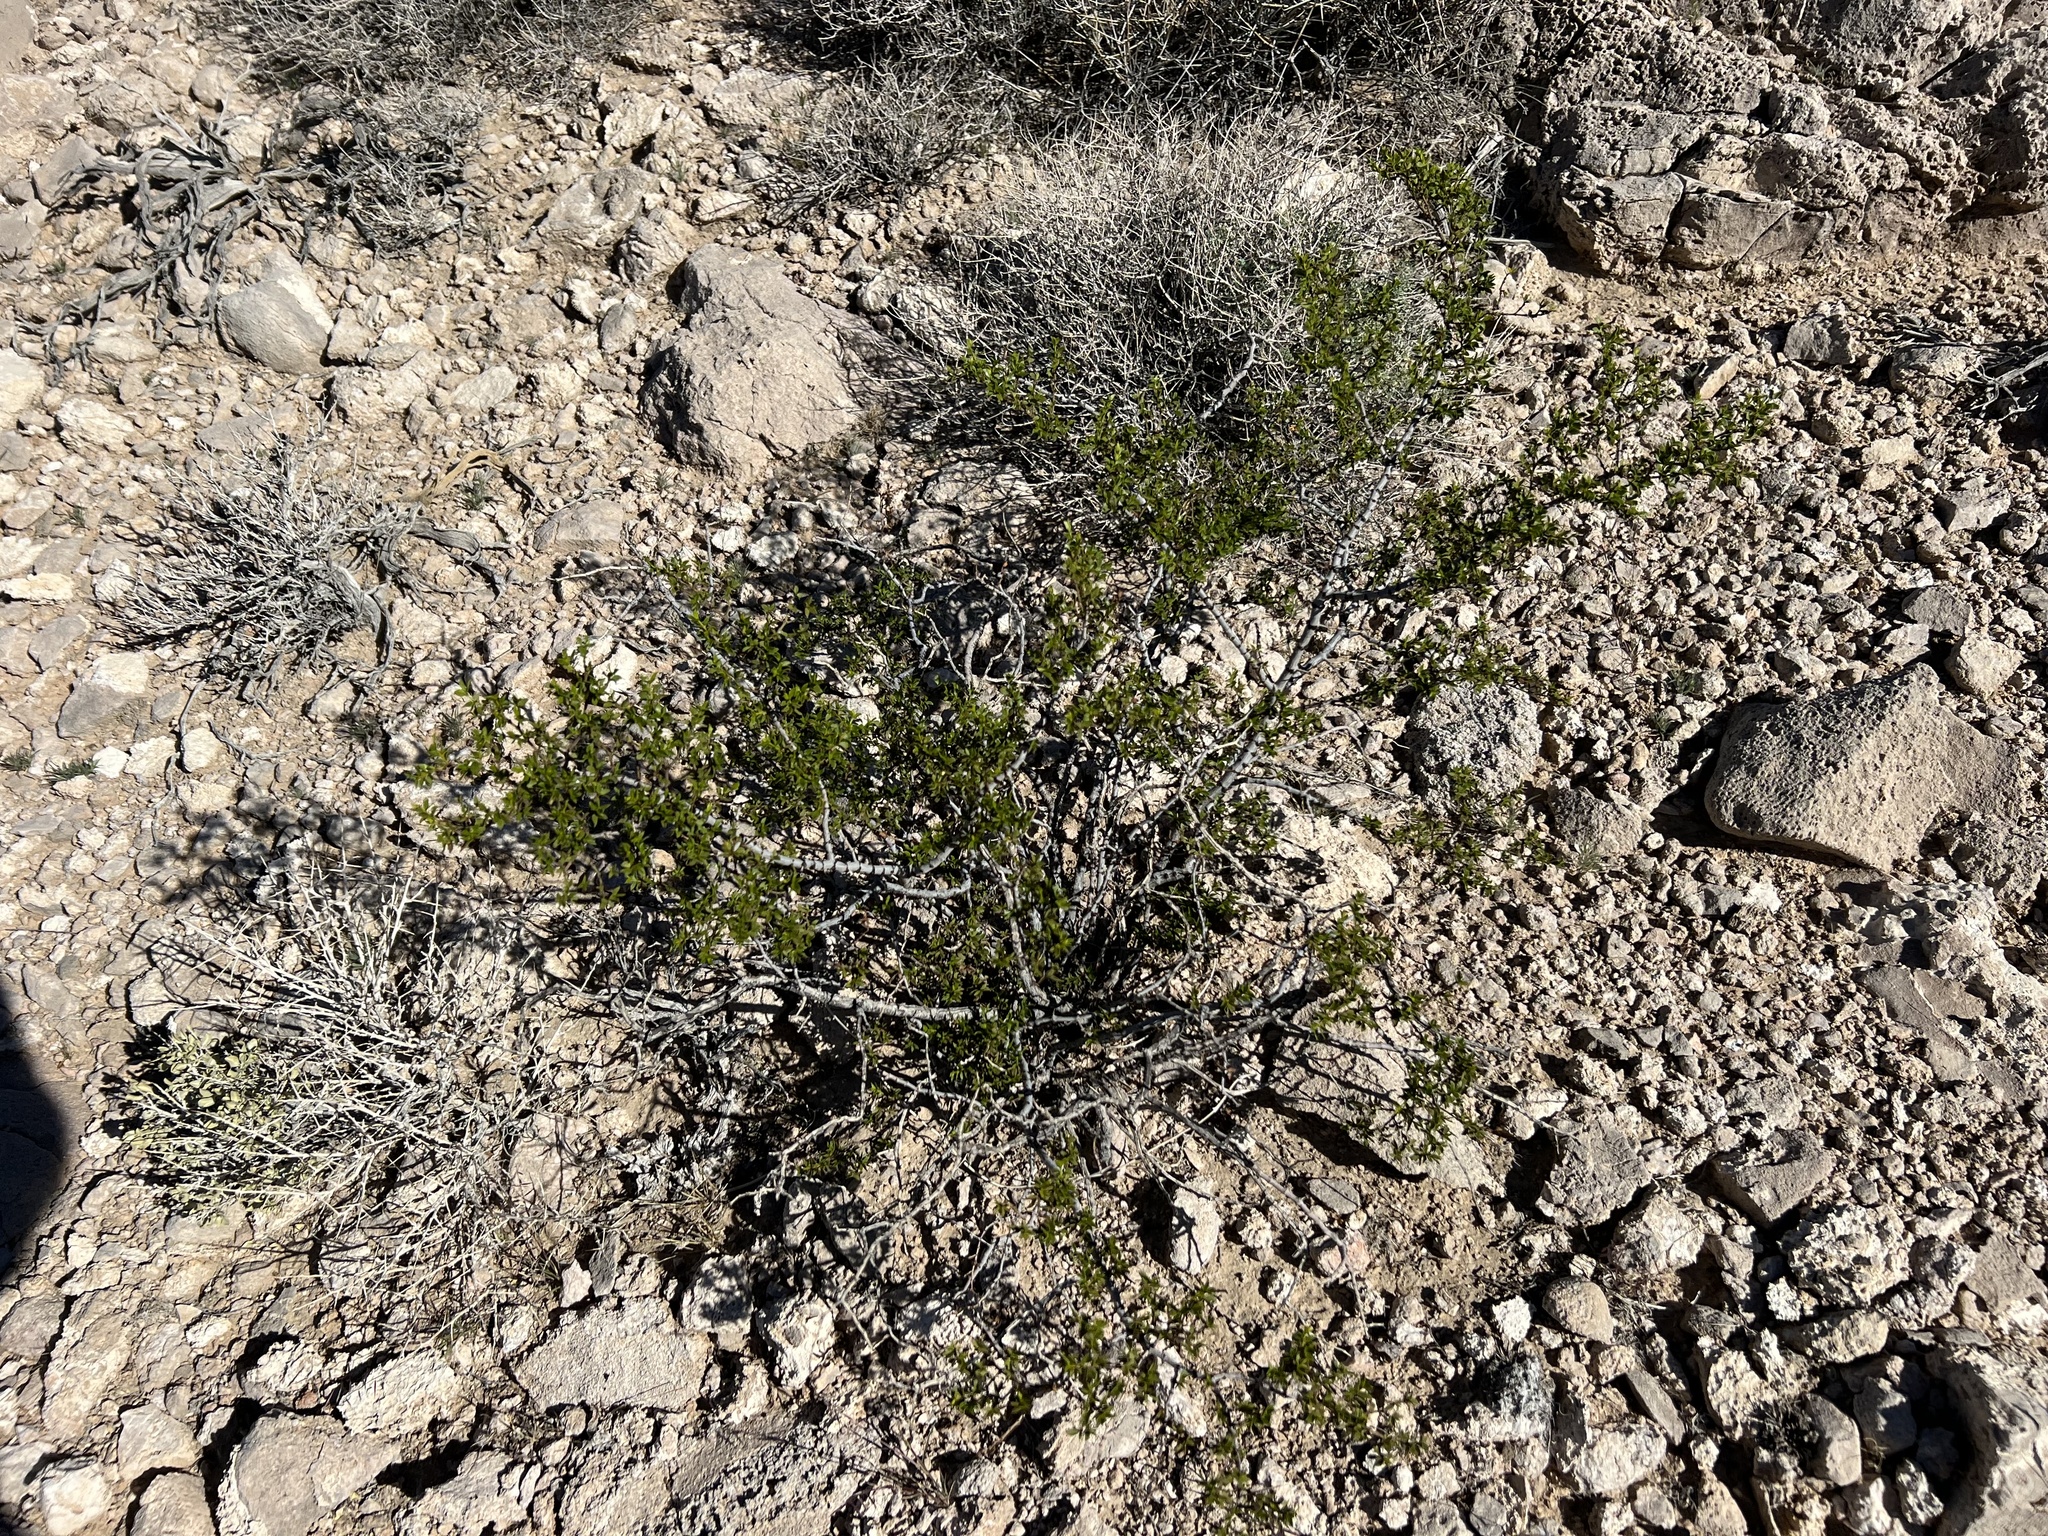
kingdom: Plantae
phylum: Tracheophyta
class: Magnoliopsida
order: Zygophyllales
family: Zygophyllaceae
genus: Larrea
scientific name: Larrea tridentata
